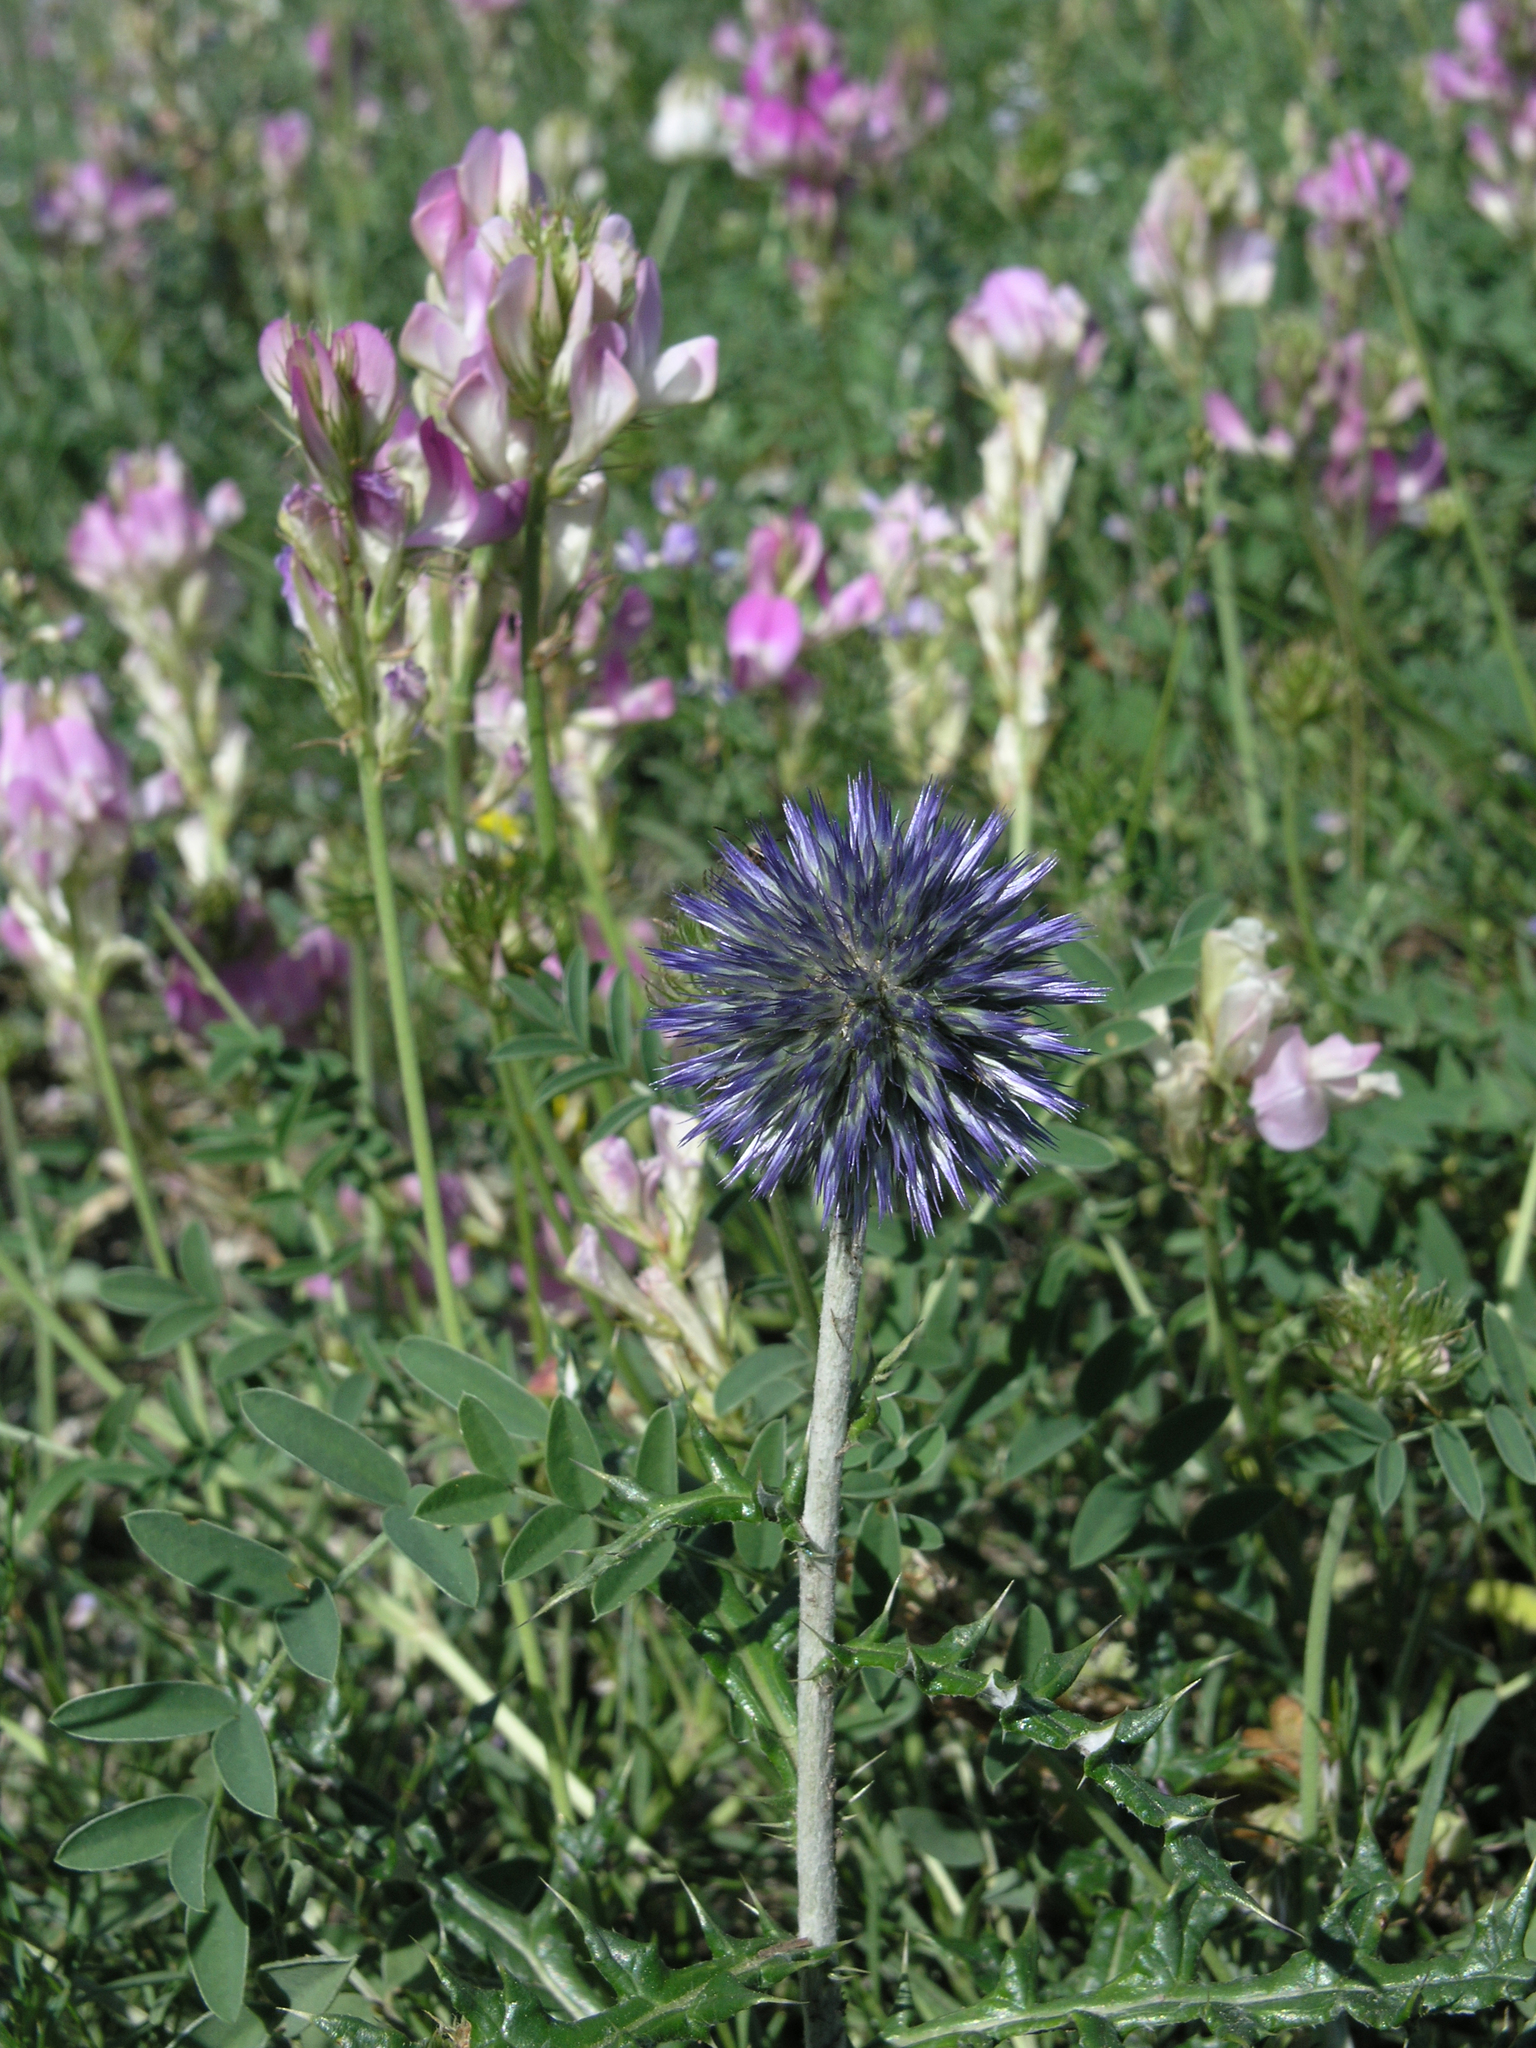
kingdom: Plantae
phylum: Tracheophyta
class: Magnoliopsida
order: Asterales
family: Asteraceae
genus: Echinops
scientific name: Echinops ritro
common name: Globe thistle
